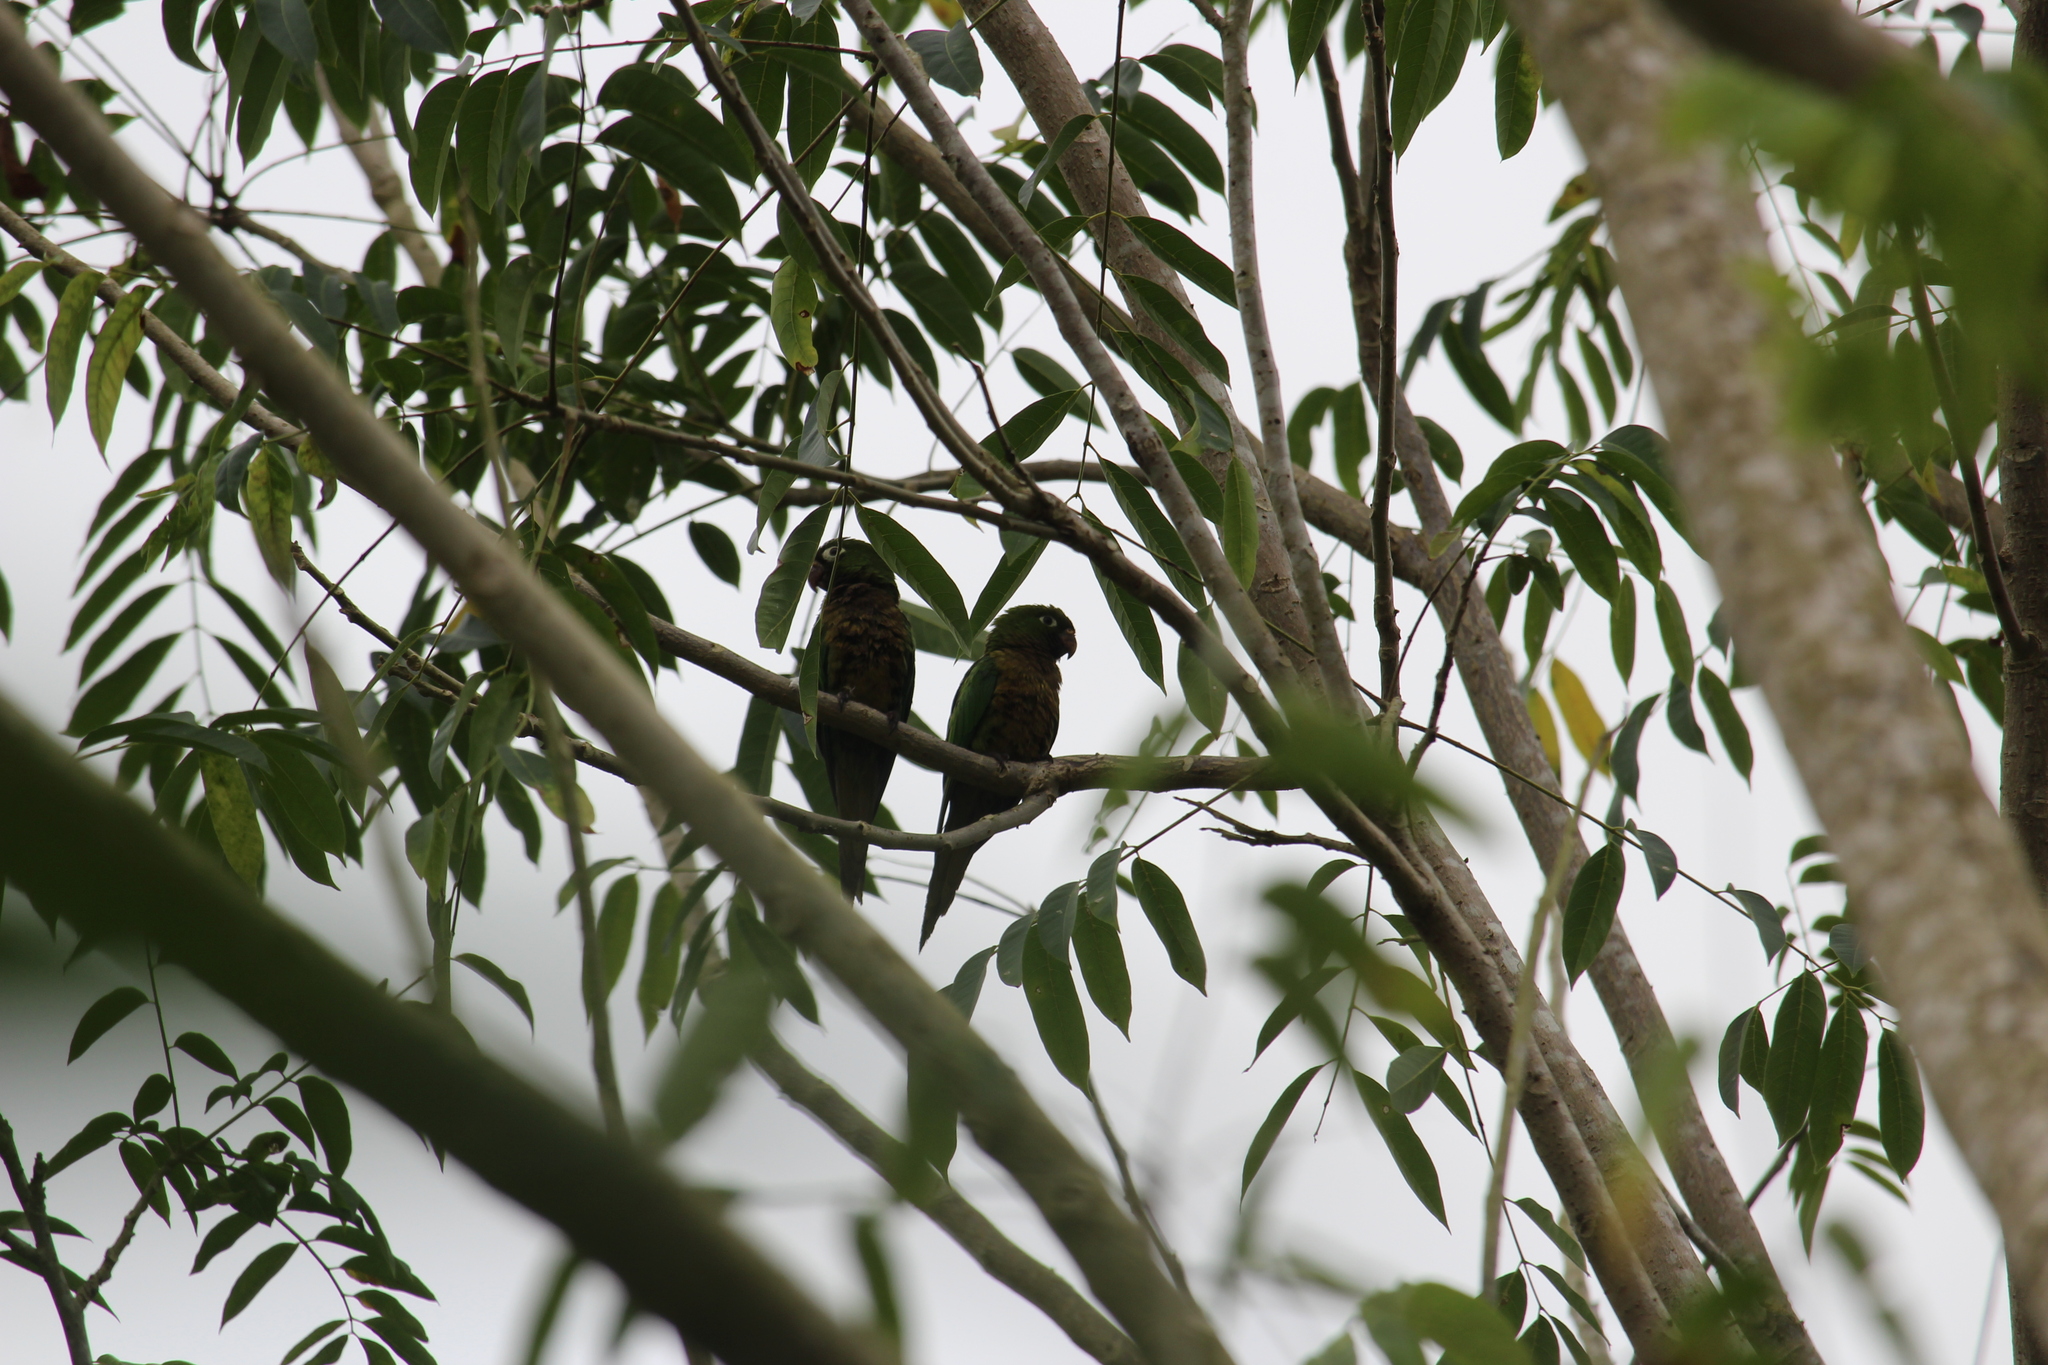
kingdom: Animalia
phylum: Chordata
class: Aves
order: Psittaciformes
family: Psittacidae
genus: Aratinga
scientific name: Aratinga nana
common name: Olive-throated parakeet
